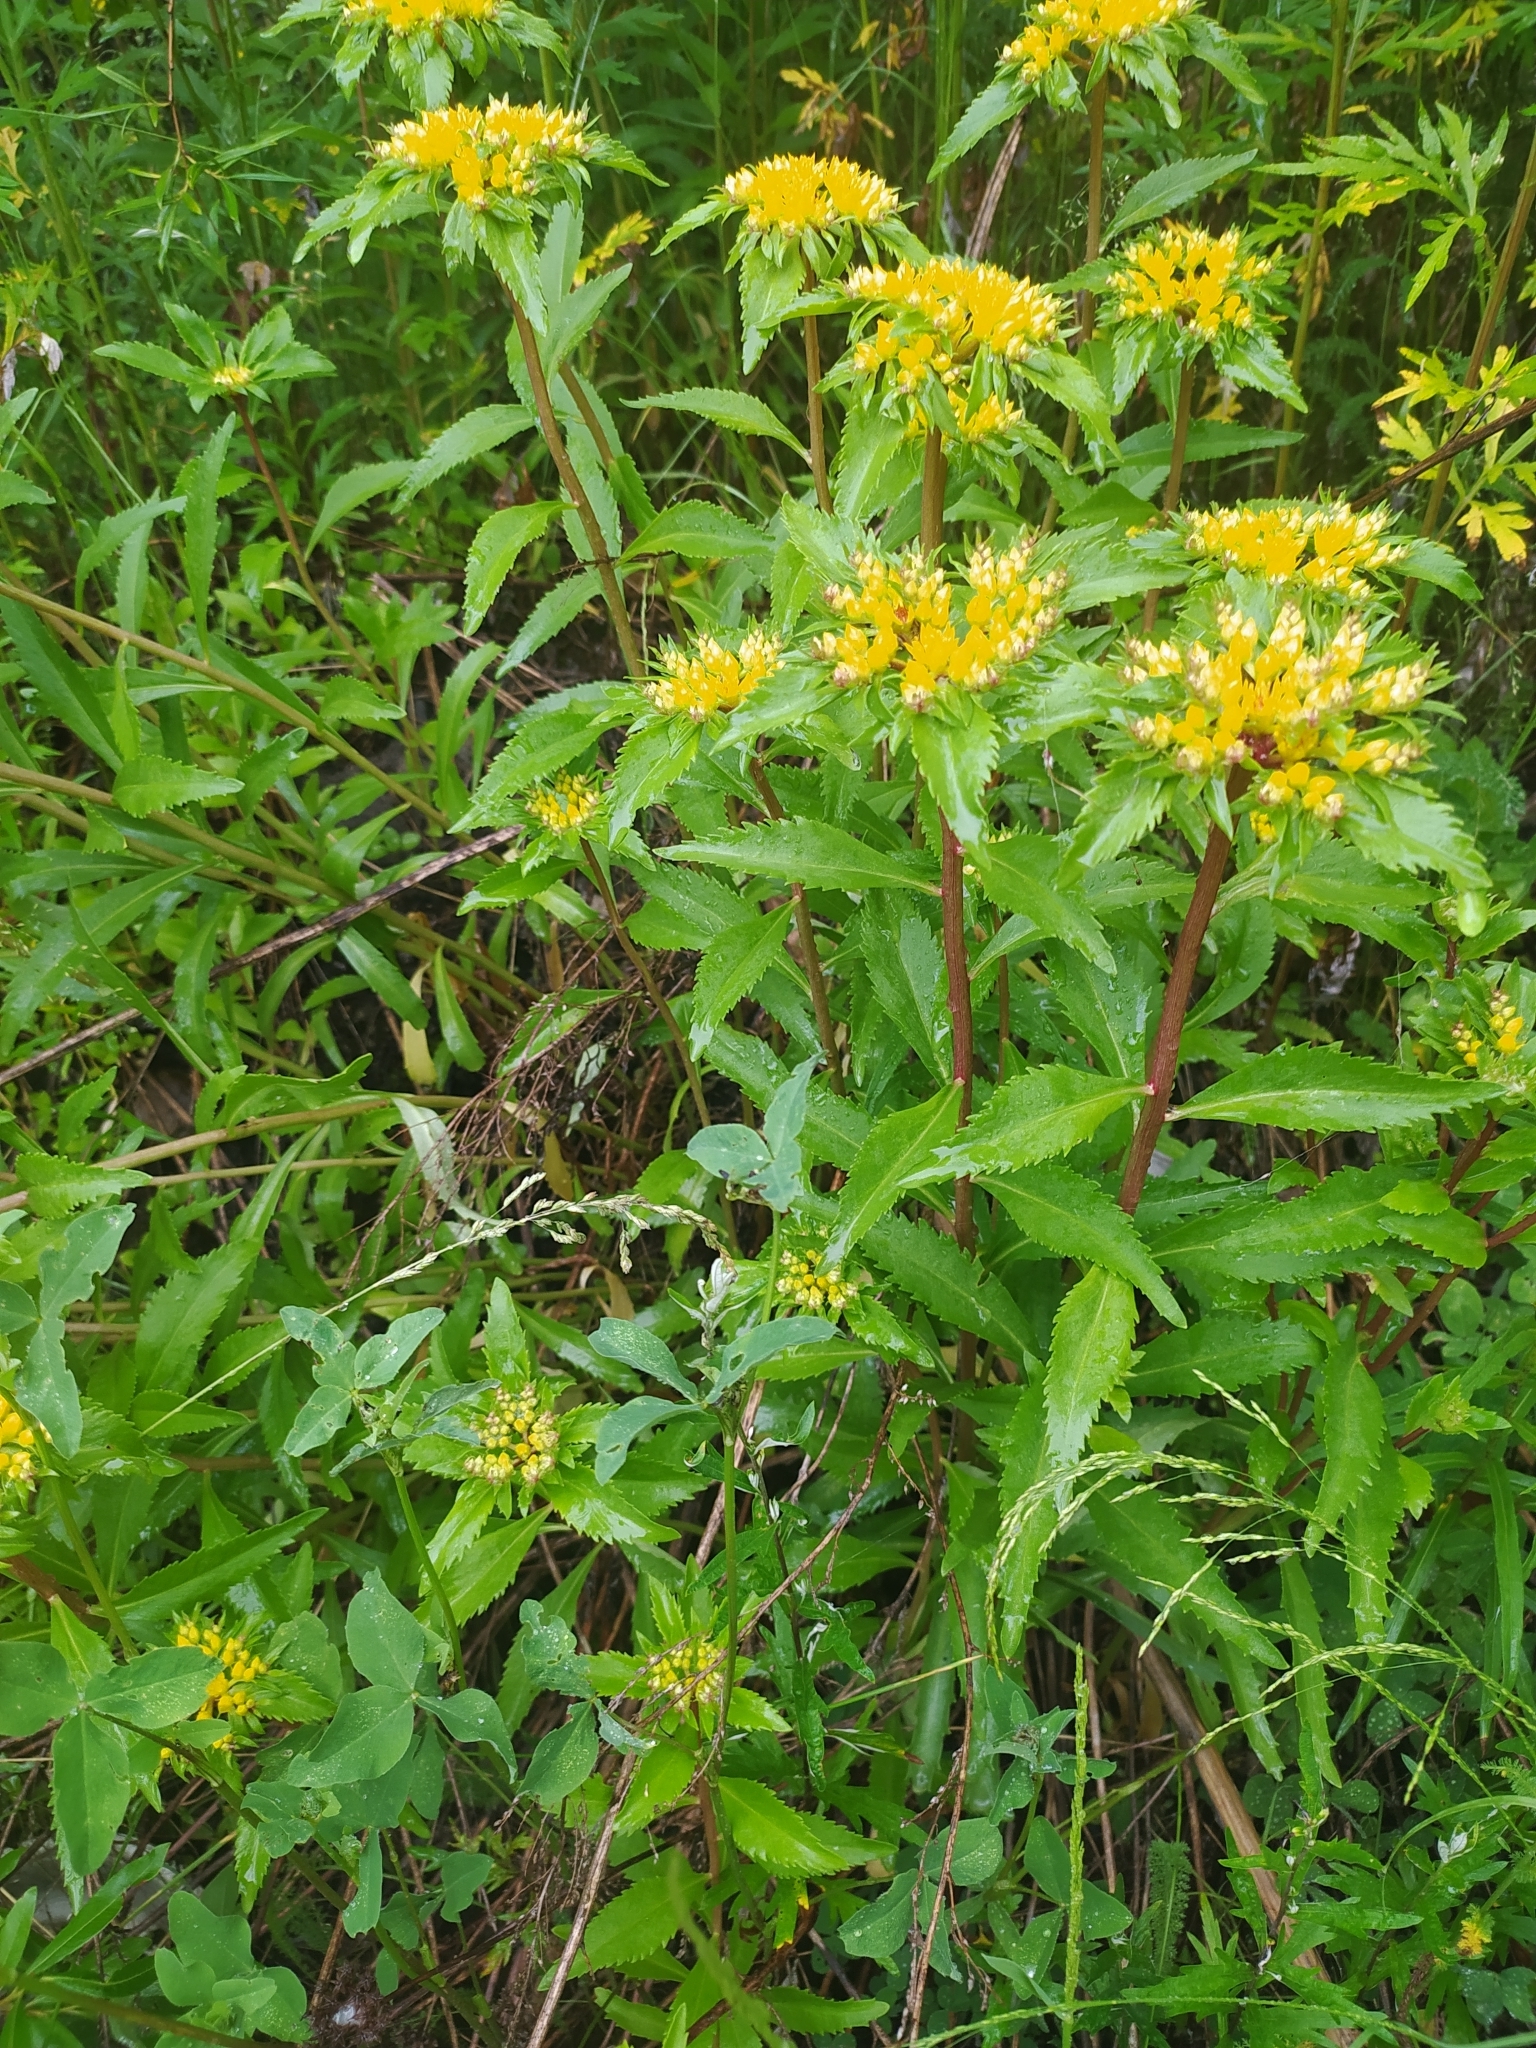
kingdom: Plantae
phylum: Tracheophyta
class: Magnoliopsida
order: Saxifragales
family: Crassulaceae
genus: Phedimus
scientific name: Phedimus aizoon
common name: Orpin aizoon
